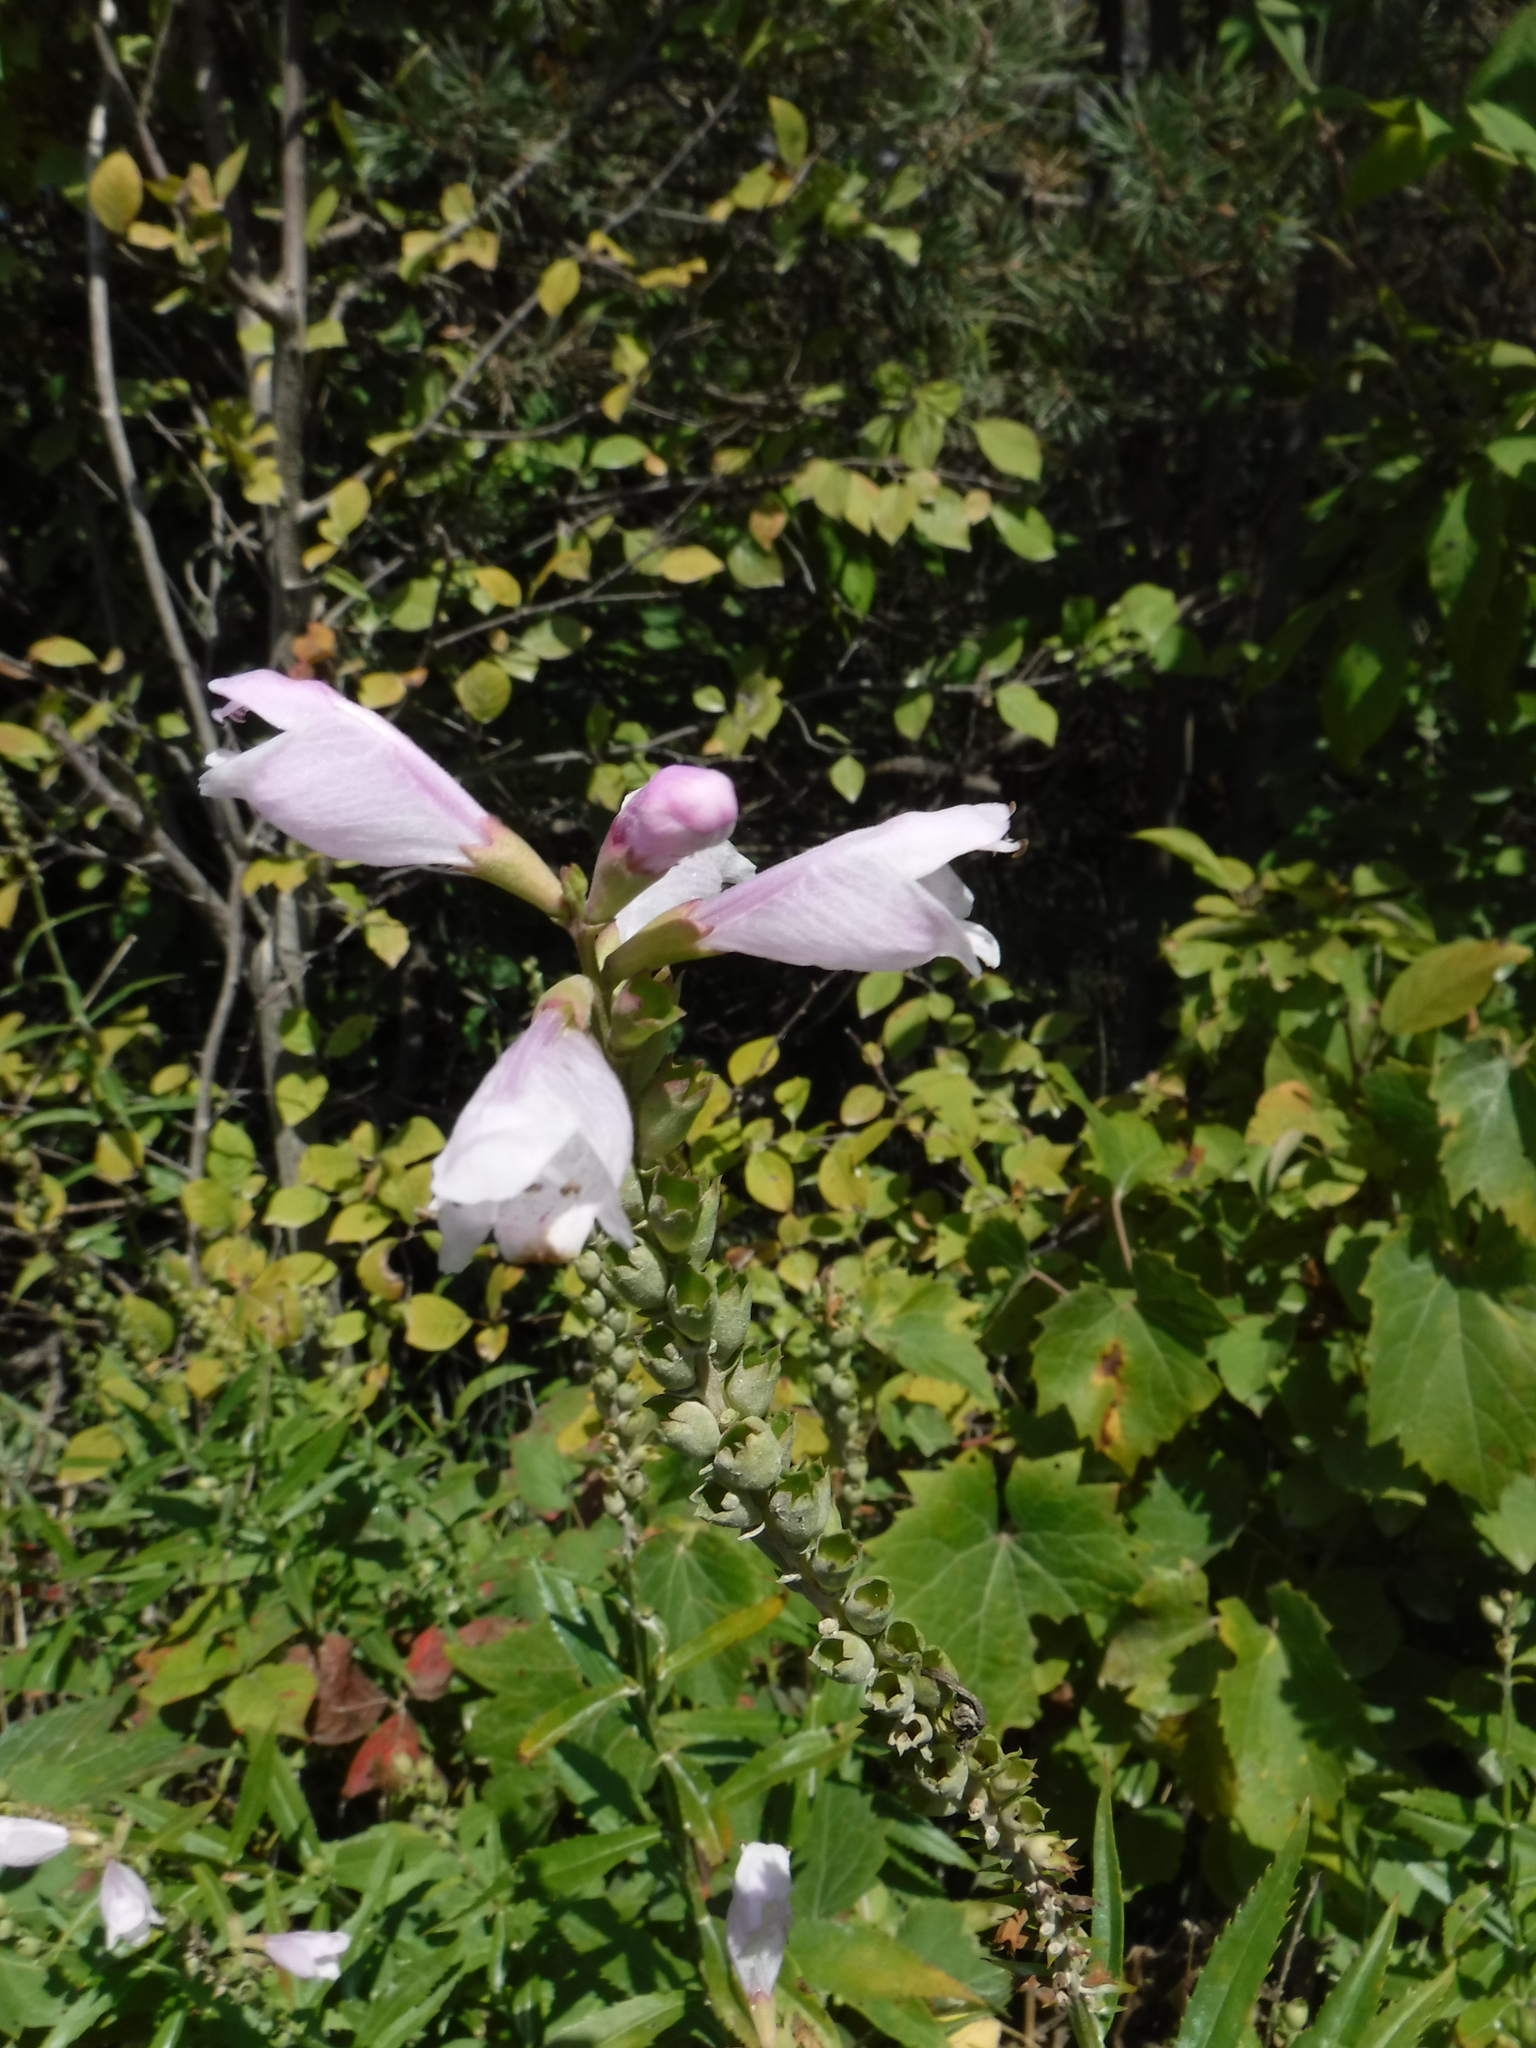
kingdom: Plantae
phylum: Tracheophyta
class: Magnoliopsida
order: Lamiales
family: Lamiaceae
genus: Physostegia
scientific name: Physostegia virginiana
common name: Obedient-plant
